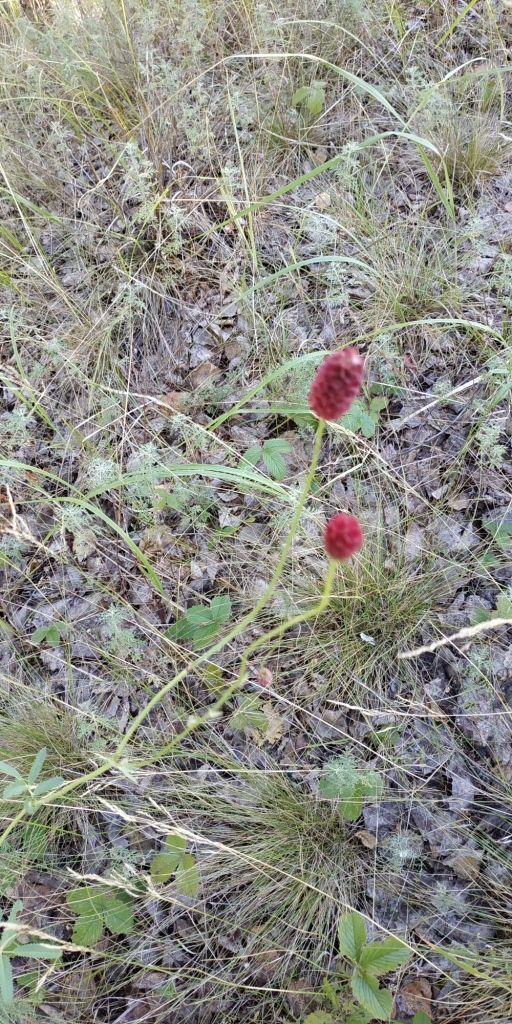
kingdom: Plantae
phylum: Tracheophyta
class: Magnoliopsida
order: Rosales
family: Rosaceae
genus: Sanguisorba
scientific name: Sanguisorba officinalis
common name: Great burnet
